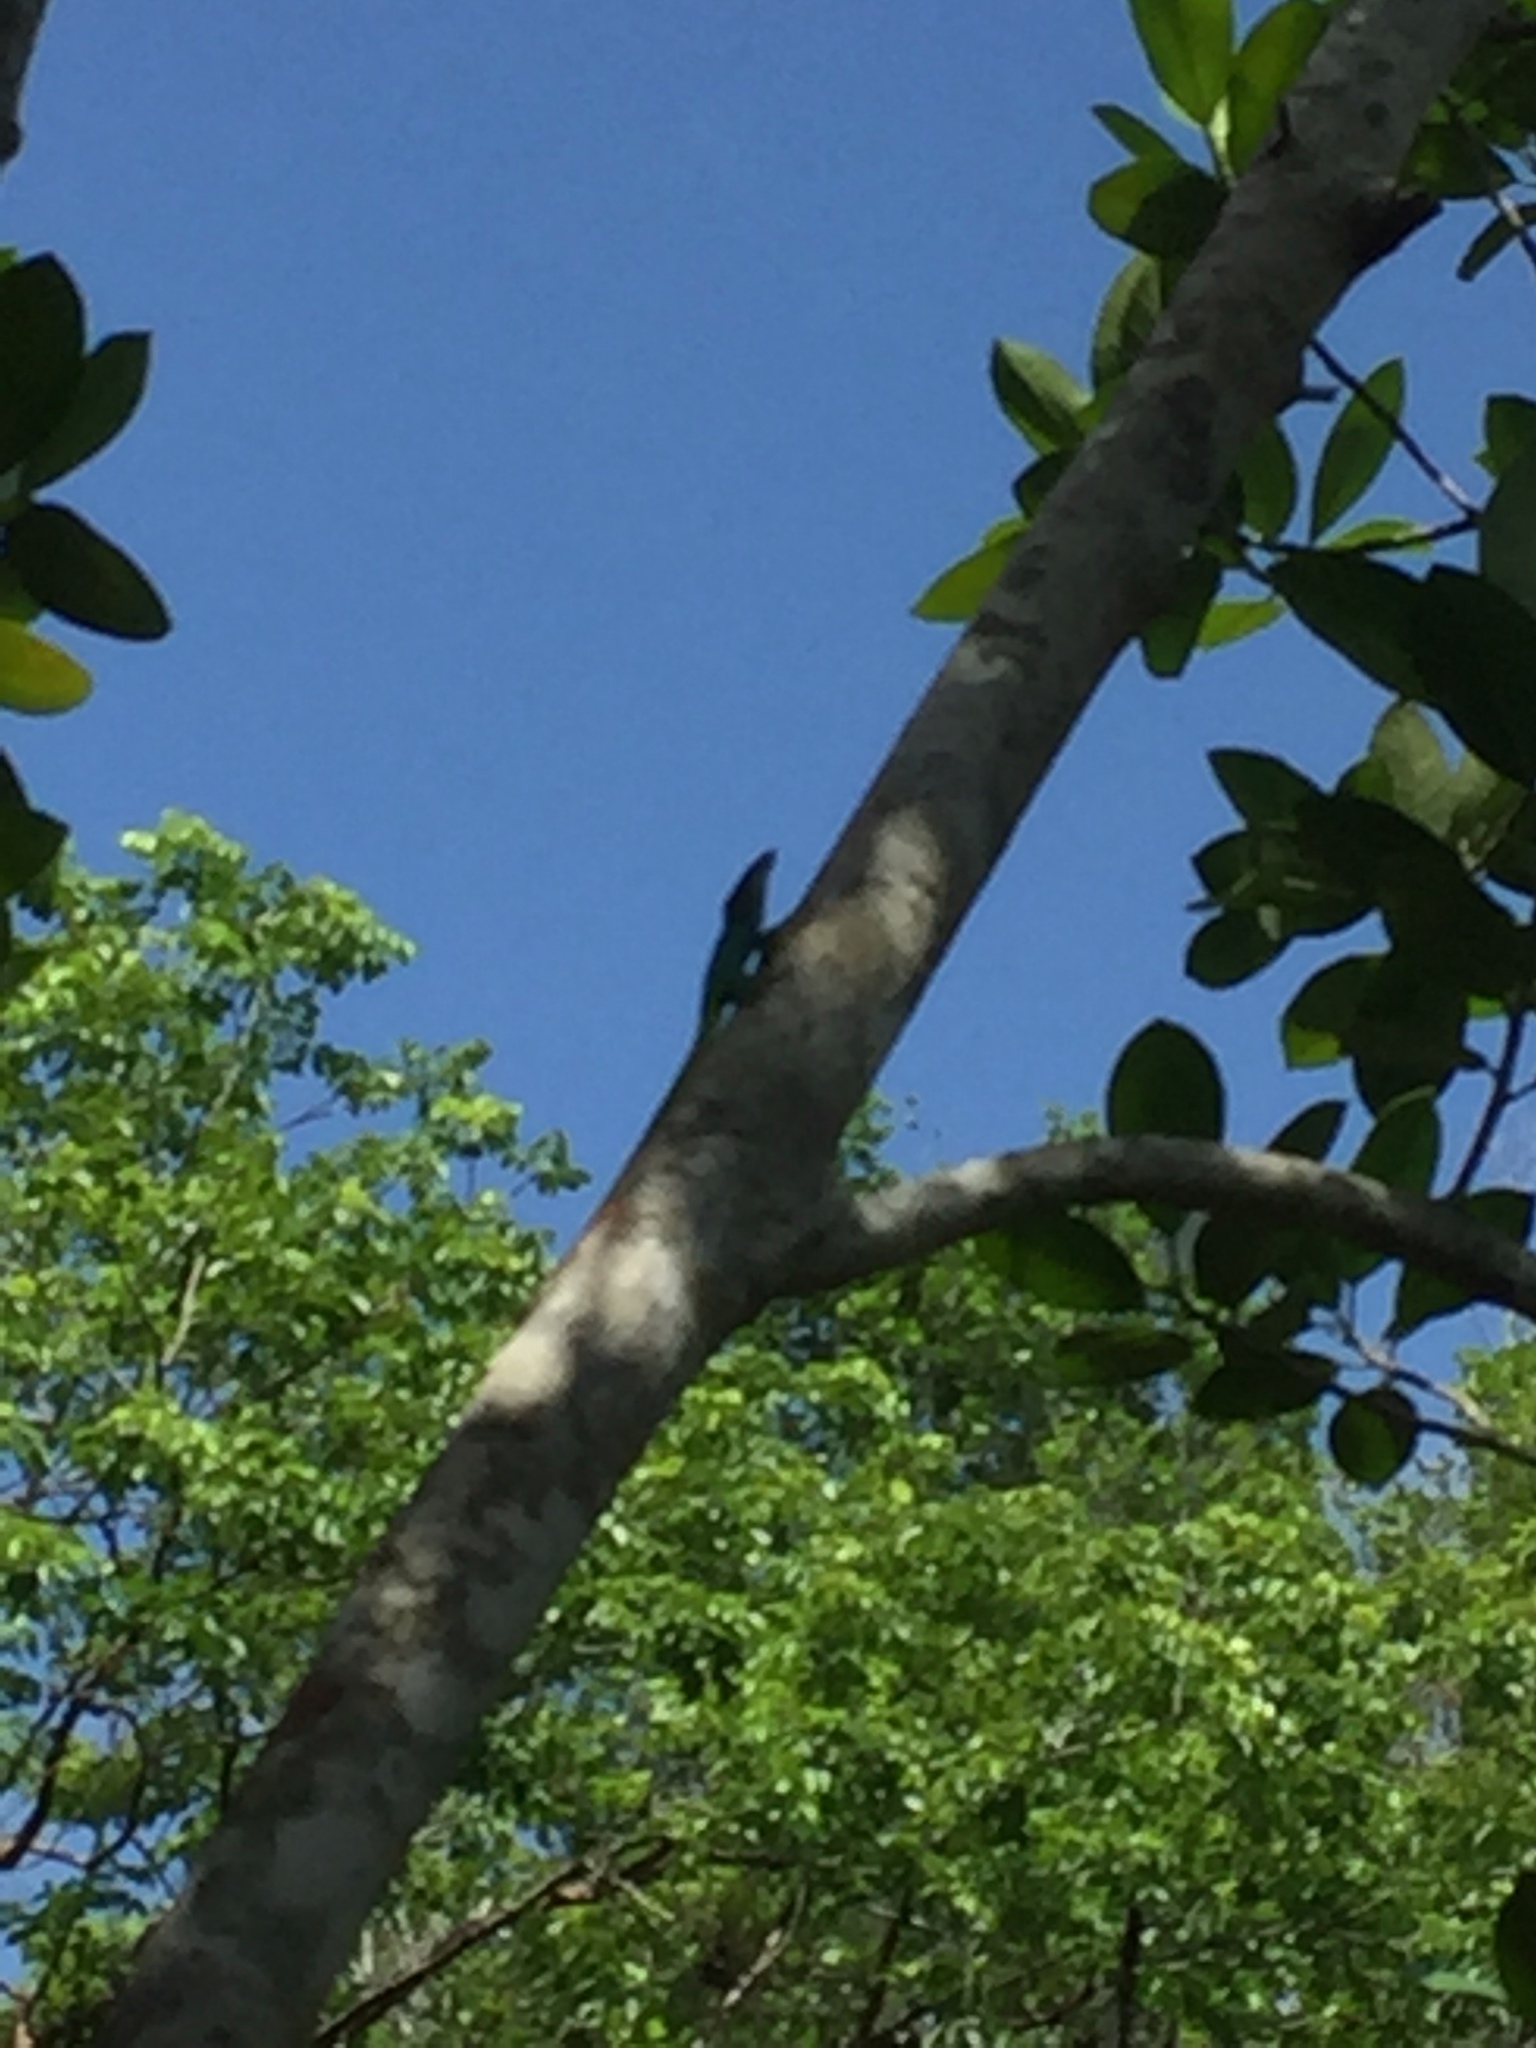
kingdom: Animalia
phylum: Chordata
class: Squamata
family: Dactyloidae
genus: Anolis
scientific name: Anolis allisoni
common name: Allison's anole
